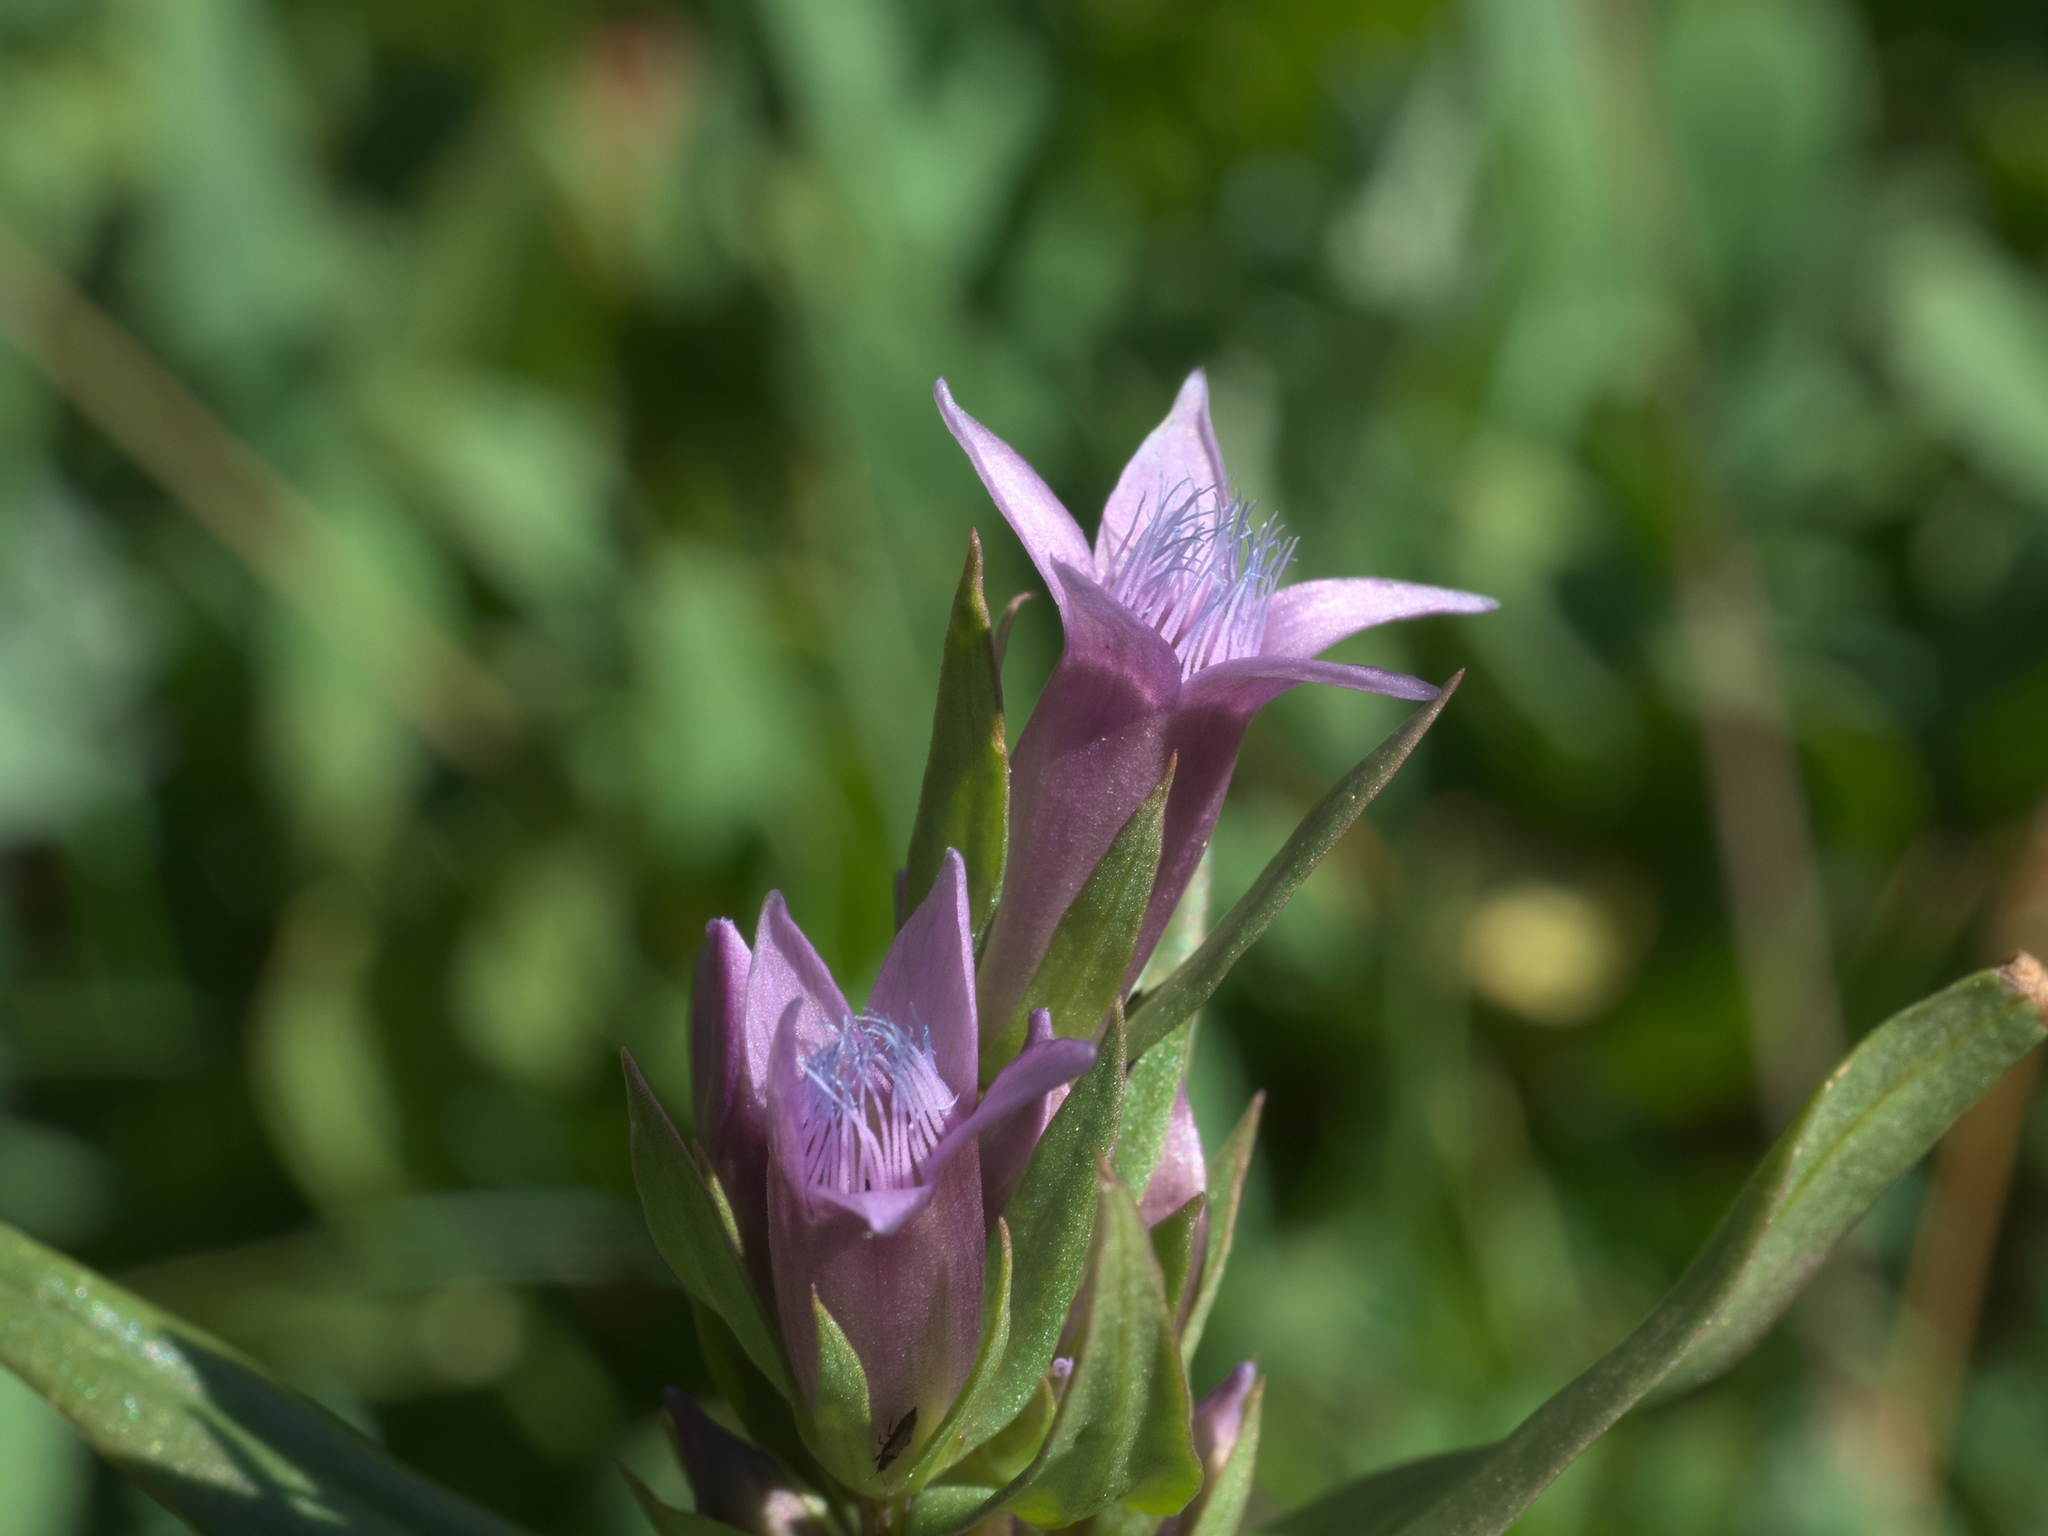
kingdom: Plantae
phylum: Tracheophyta
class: Magnoliopsida
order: Gentianales
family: Gentianaceae
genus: Gentianella
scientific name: Gentianella amarella
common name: Autumn gentian
